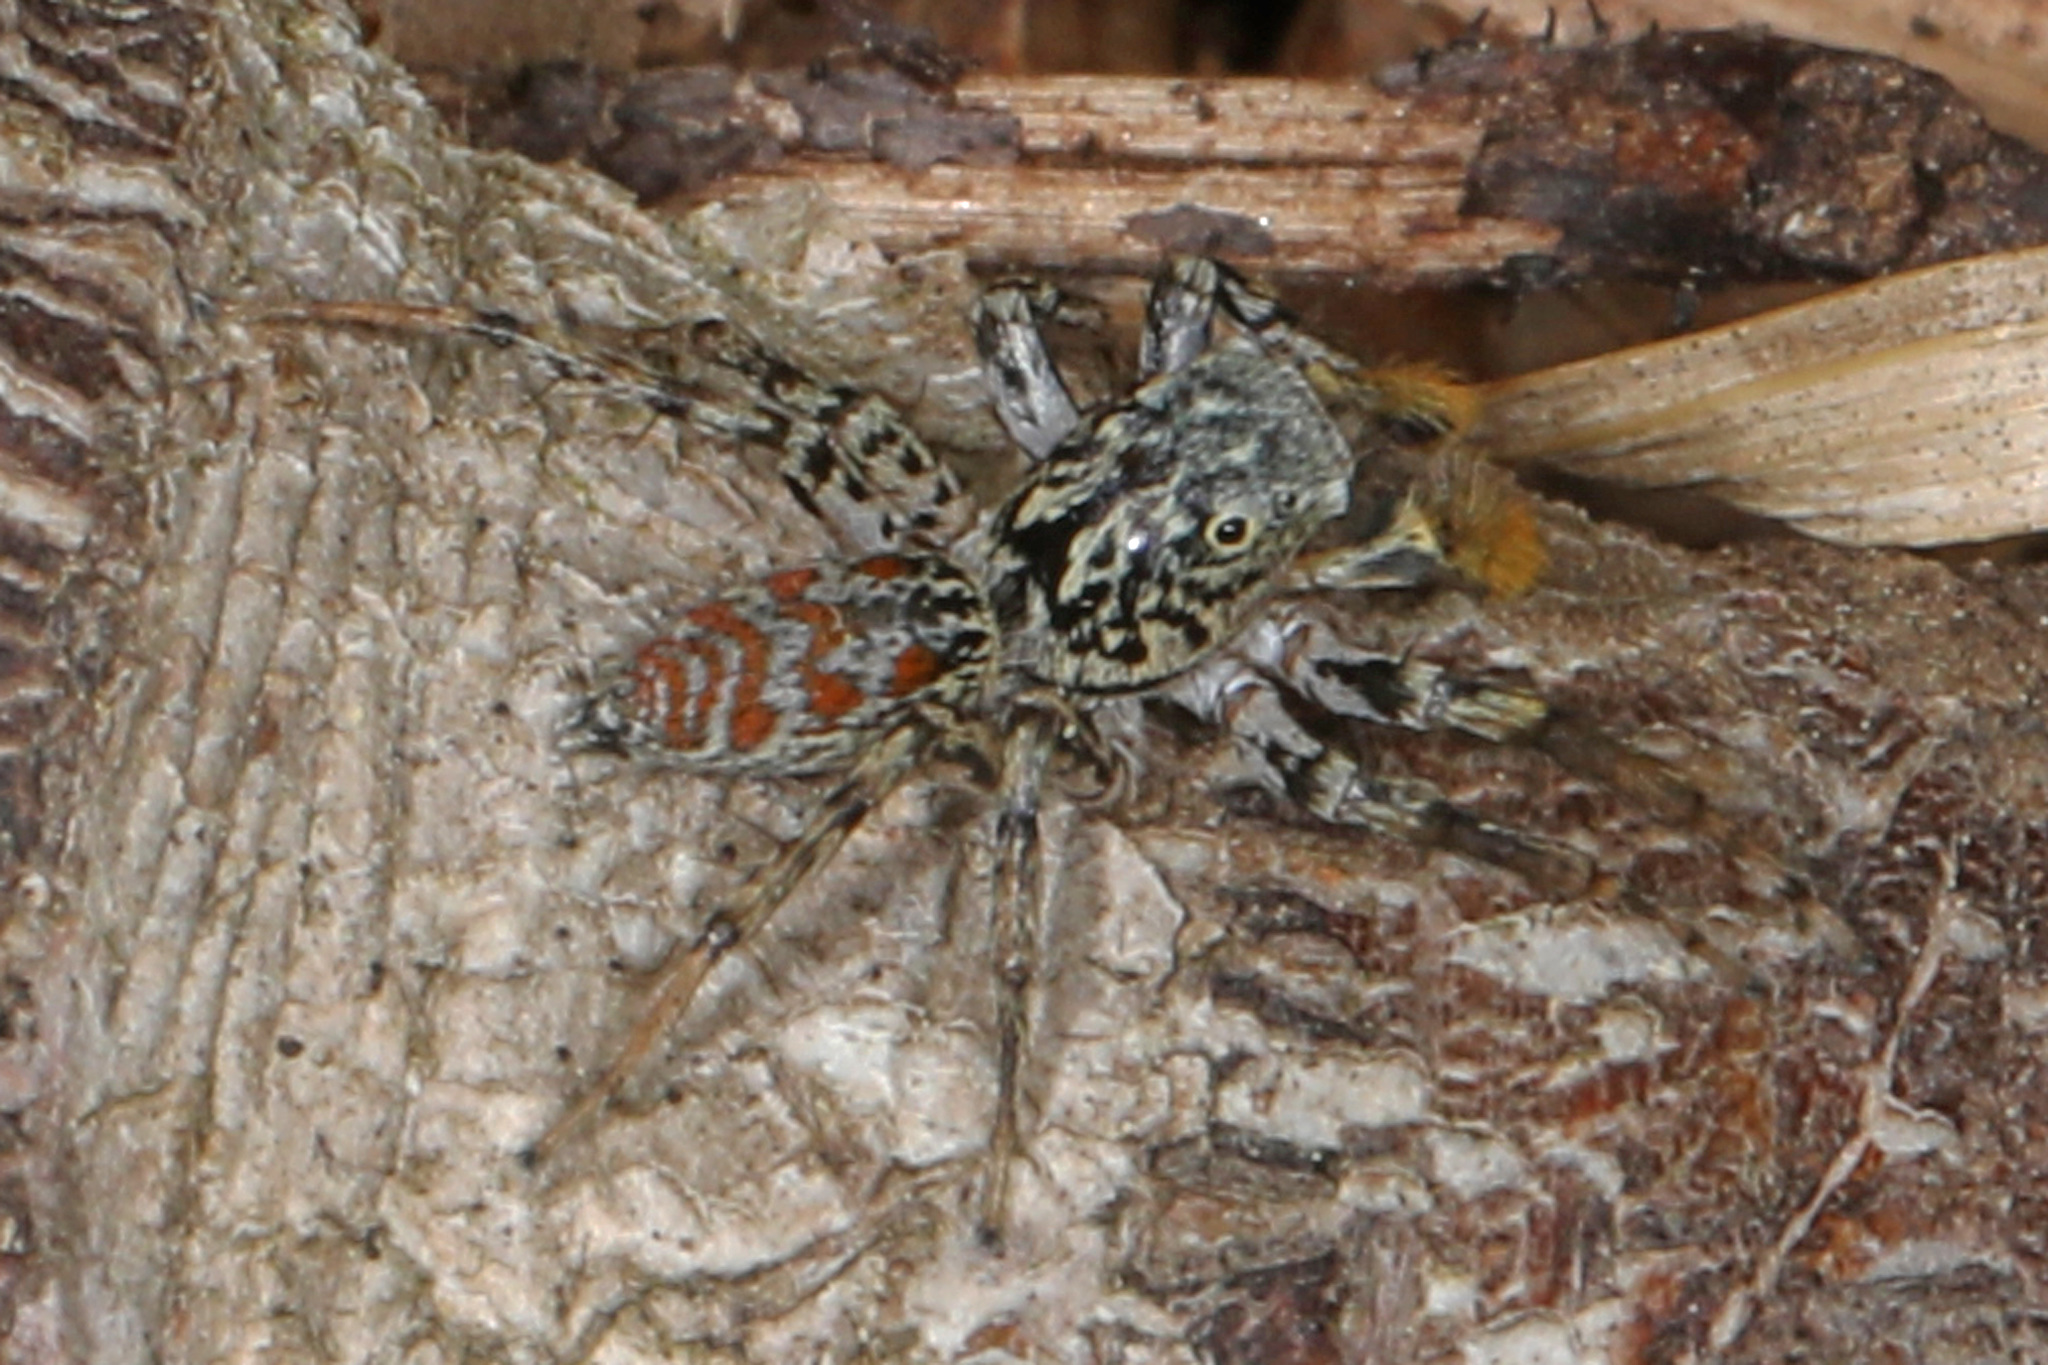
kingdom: Animalia
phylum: Arthropoda
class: Arachnida
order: Araneae
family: Salticidae
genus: Maevia
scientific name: Maevia inclemens
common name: Dimorphic jumper
